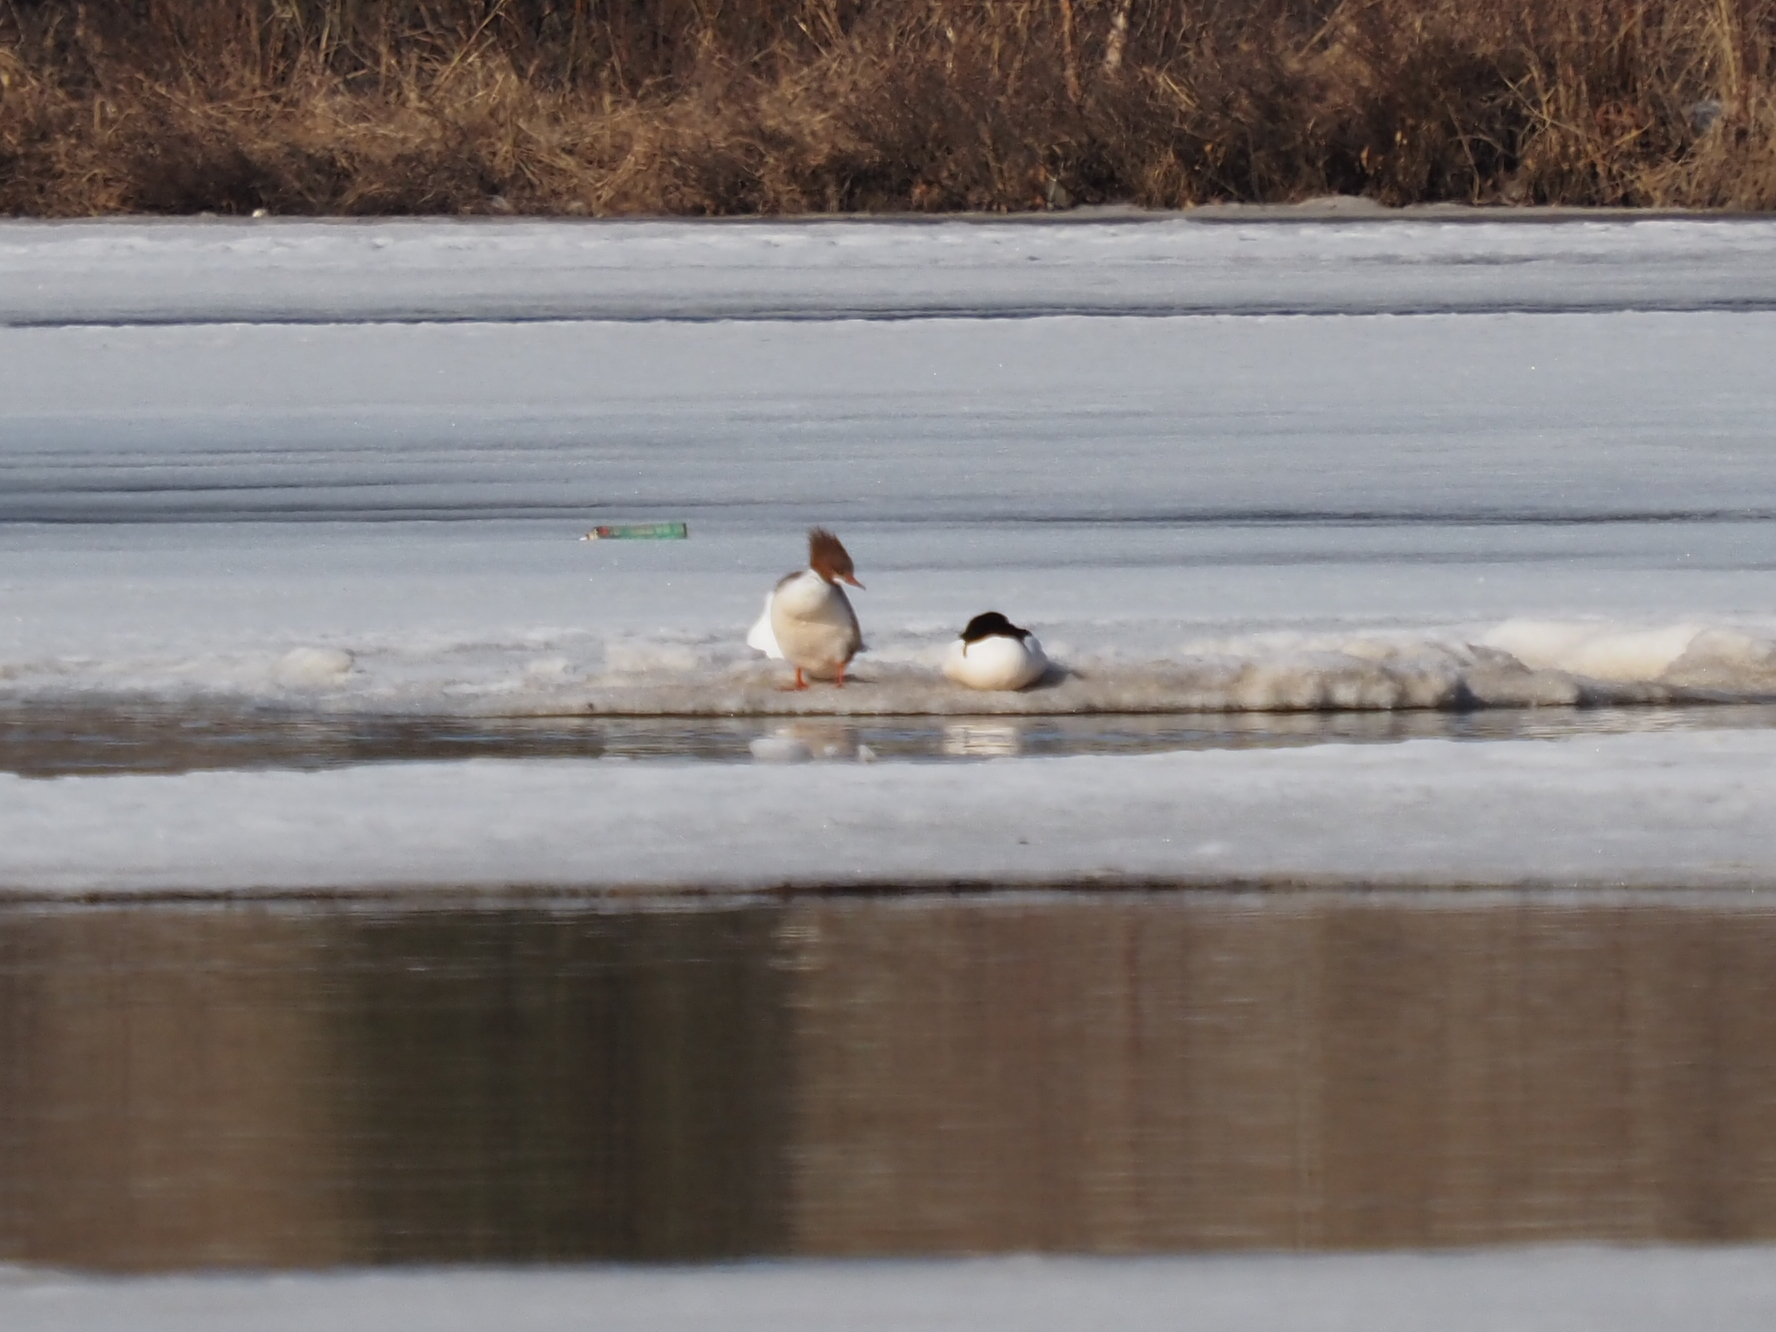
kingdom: Animalia
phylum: Chordata
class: Aves
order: Anseriformes
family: Anatidae
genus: Mergus
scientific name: Mergus merganser
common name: Common merganser
